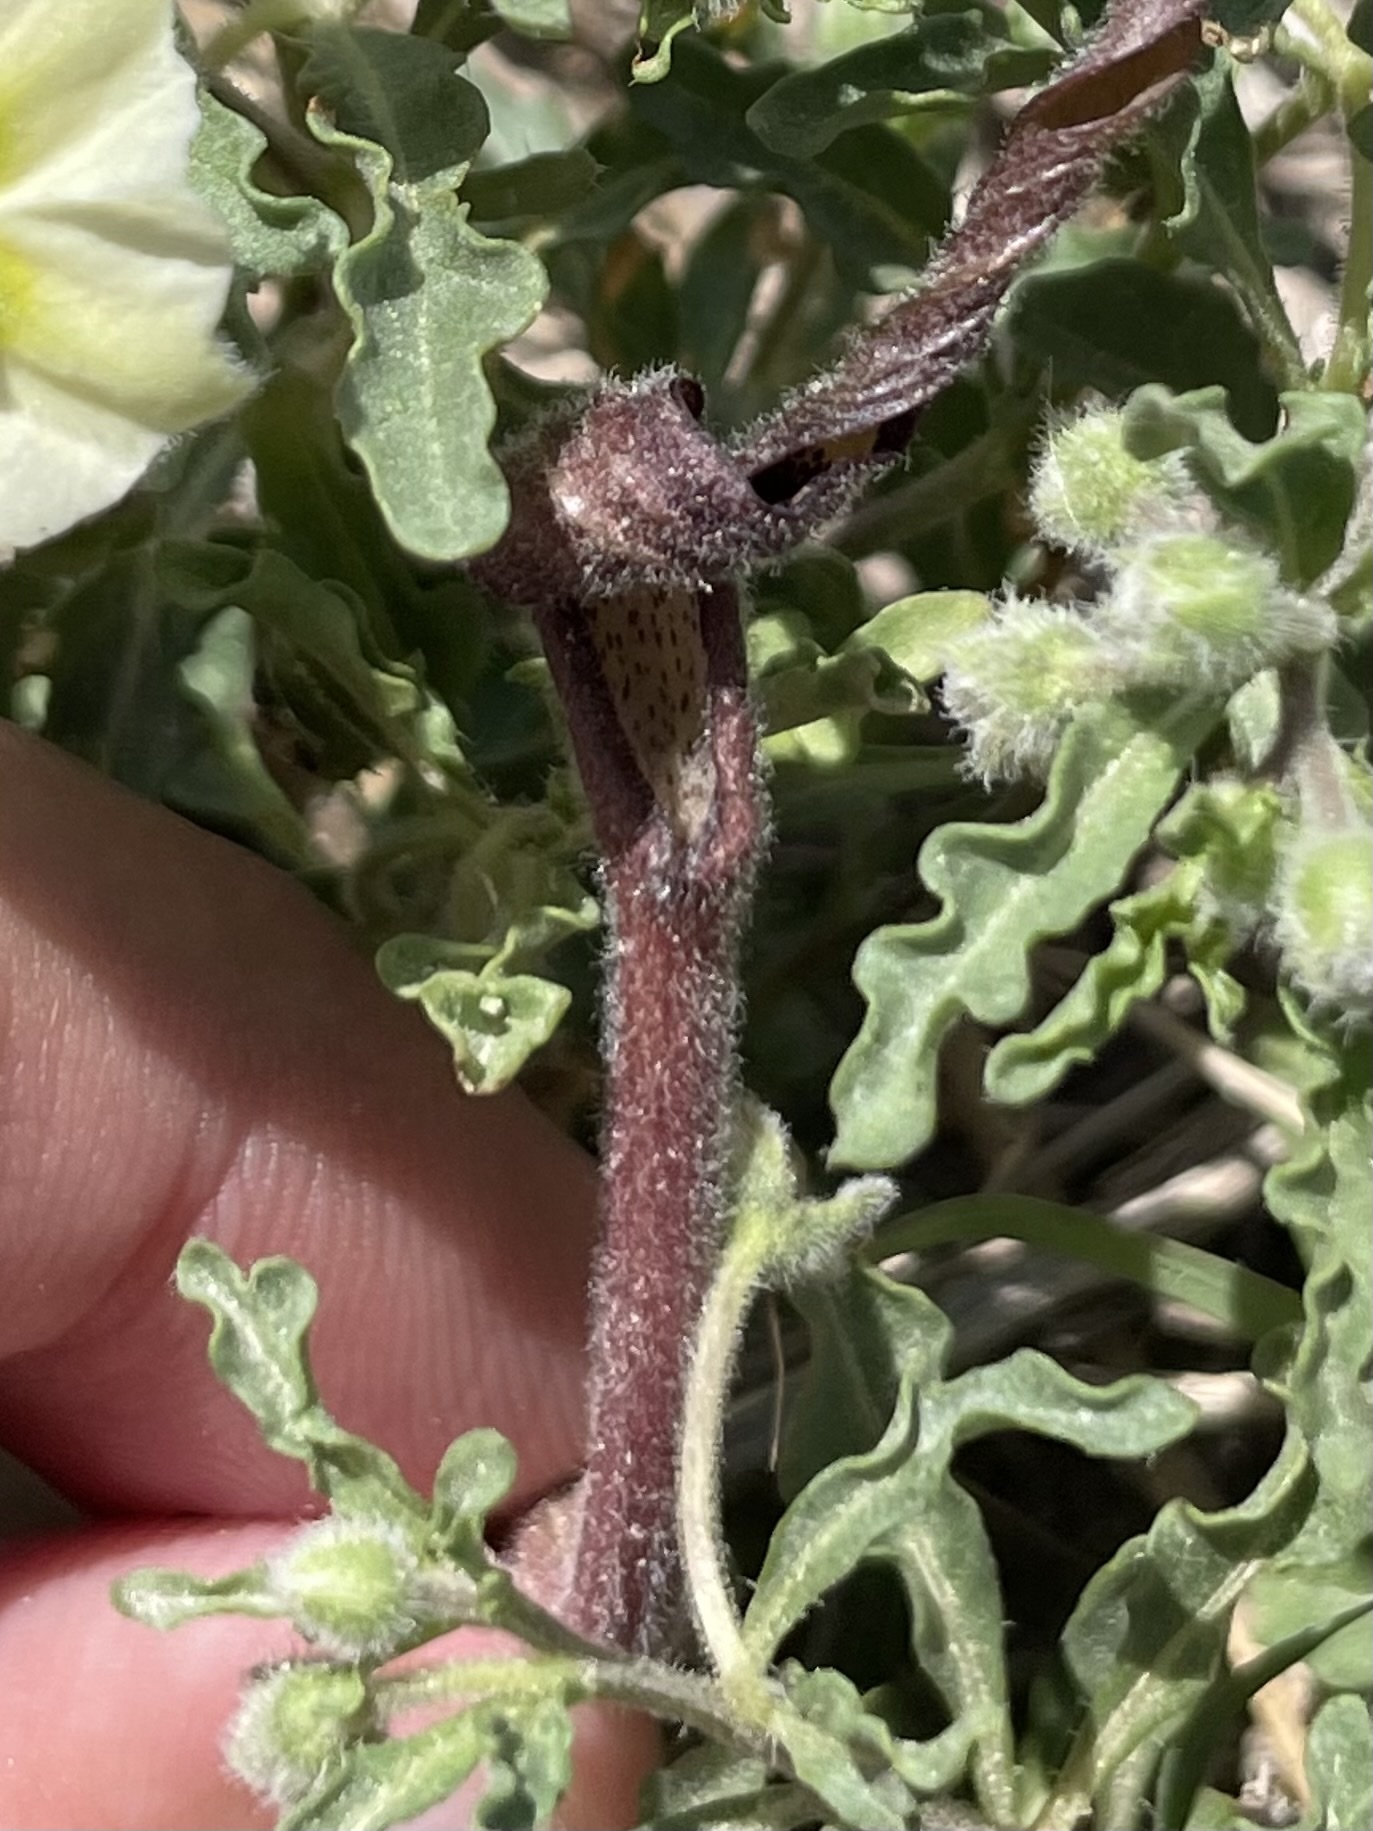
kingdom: Plantae
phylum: Tracheophyta
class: Magnoliopsida
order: Piperales
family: Aristolochiaceae
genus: Aristolochia
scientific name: Aristolochia erecta
